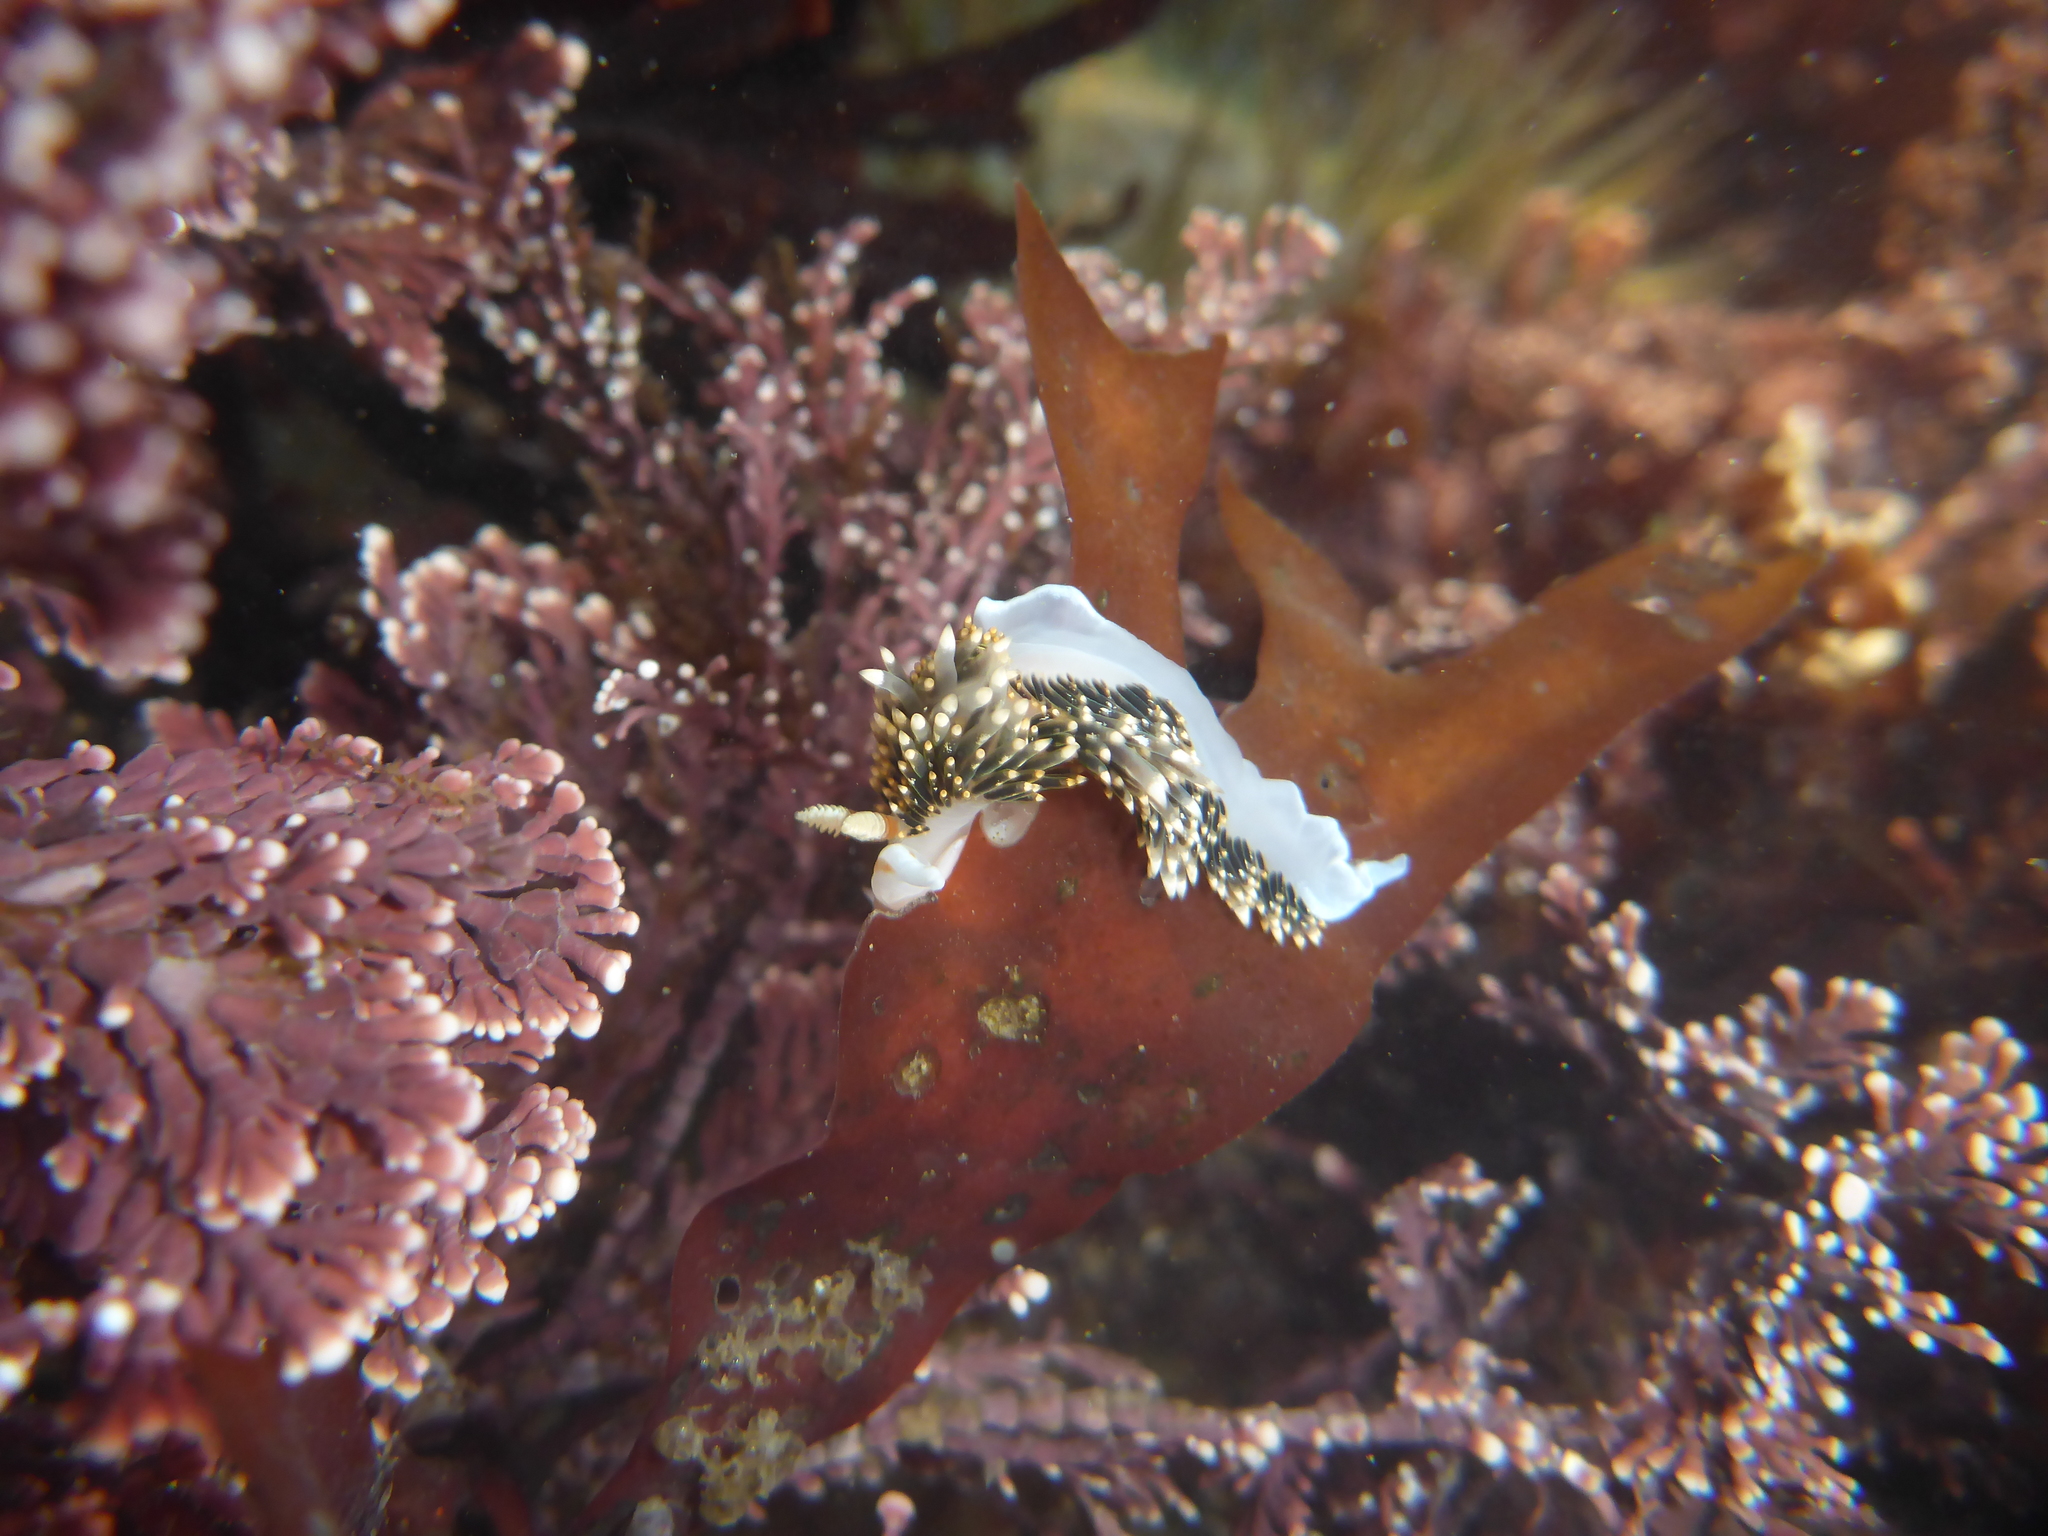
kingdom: Animalia
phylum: Mollusca
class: Gastropoda
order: Nudibranchia
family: Facelinidae
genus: Phidiana
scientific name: Phidiana hiltoni
